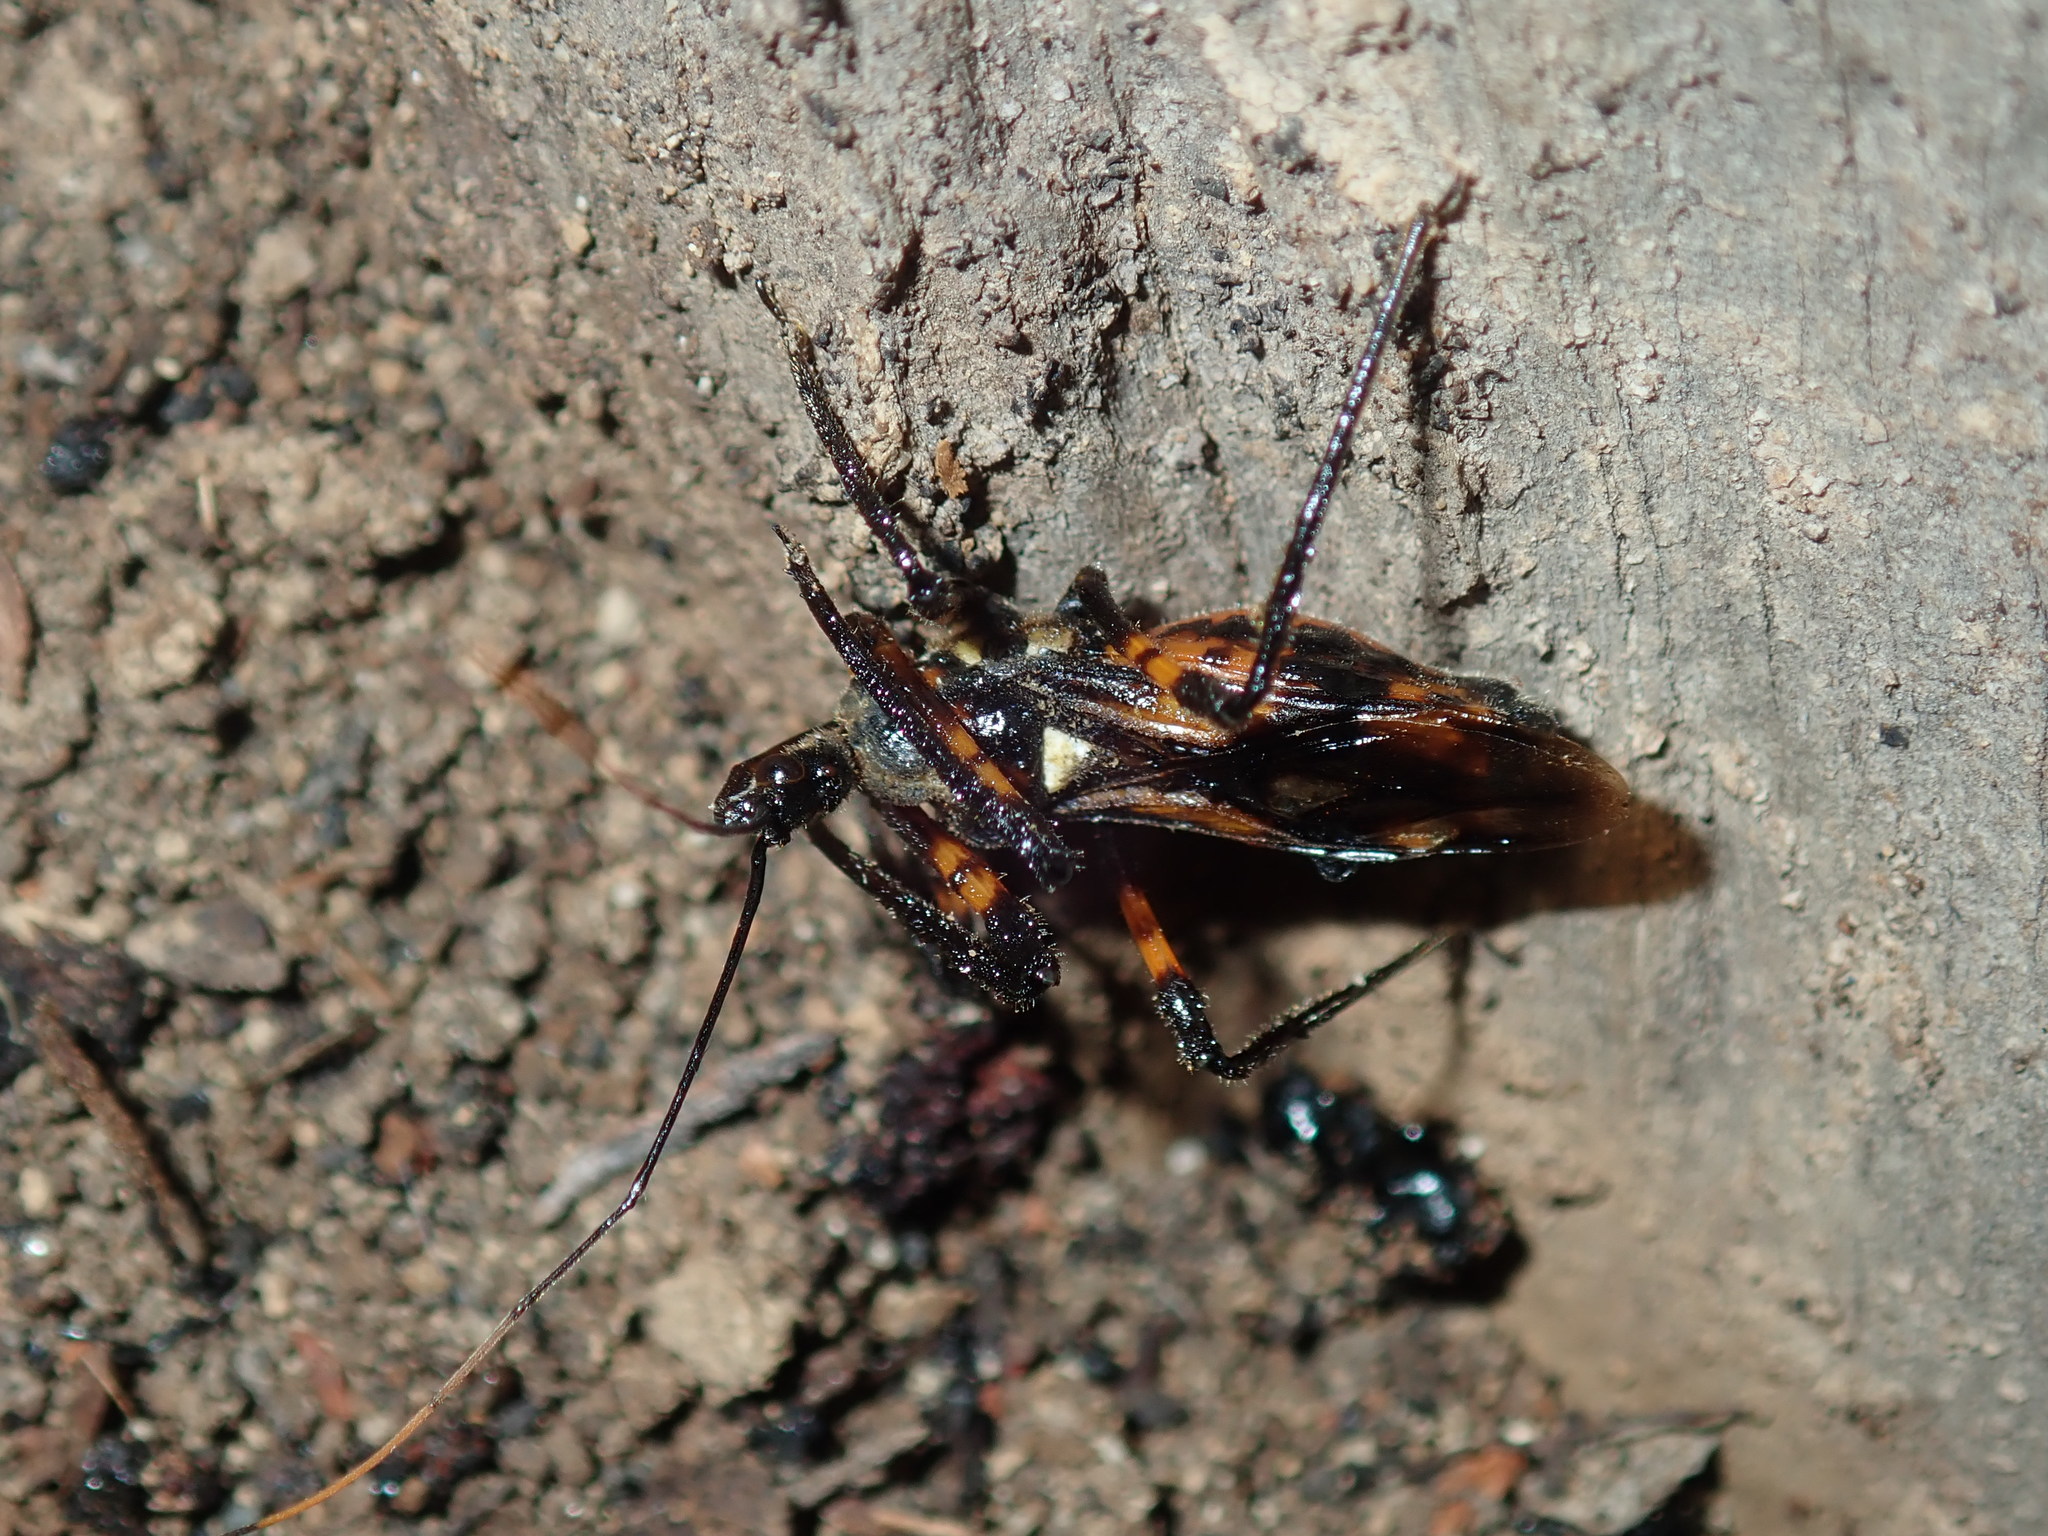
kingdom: Animalia
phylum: Arthropoda
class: Insecta
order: Hemiptera
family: Reduviidae
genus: Austrovelinus
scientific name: Austrovelinus varius
